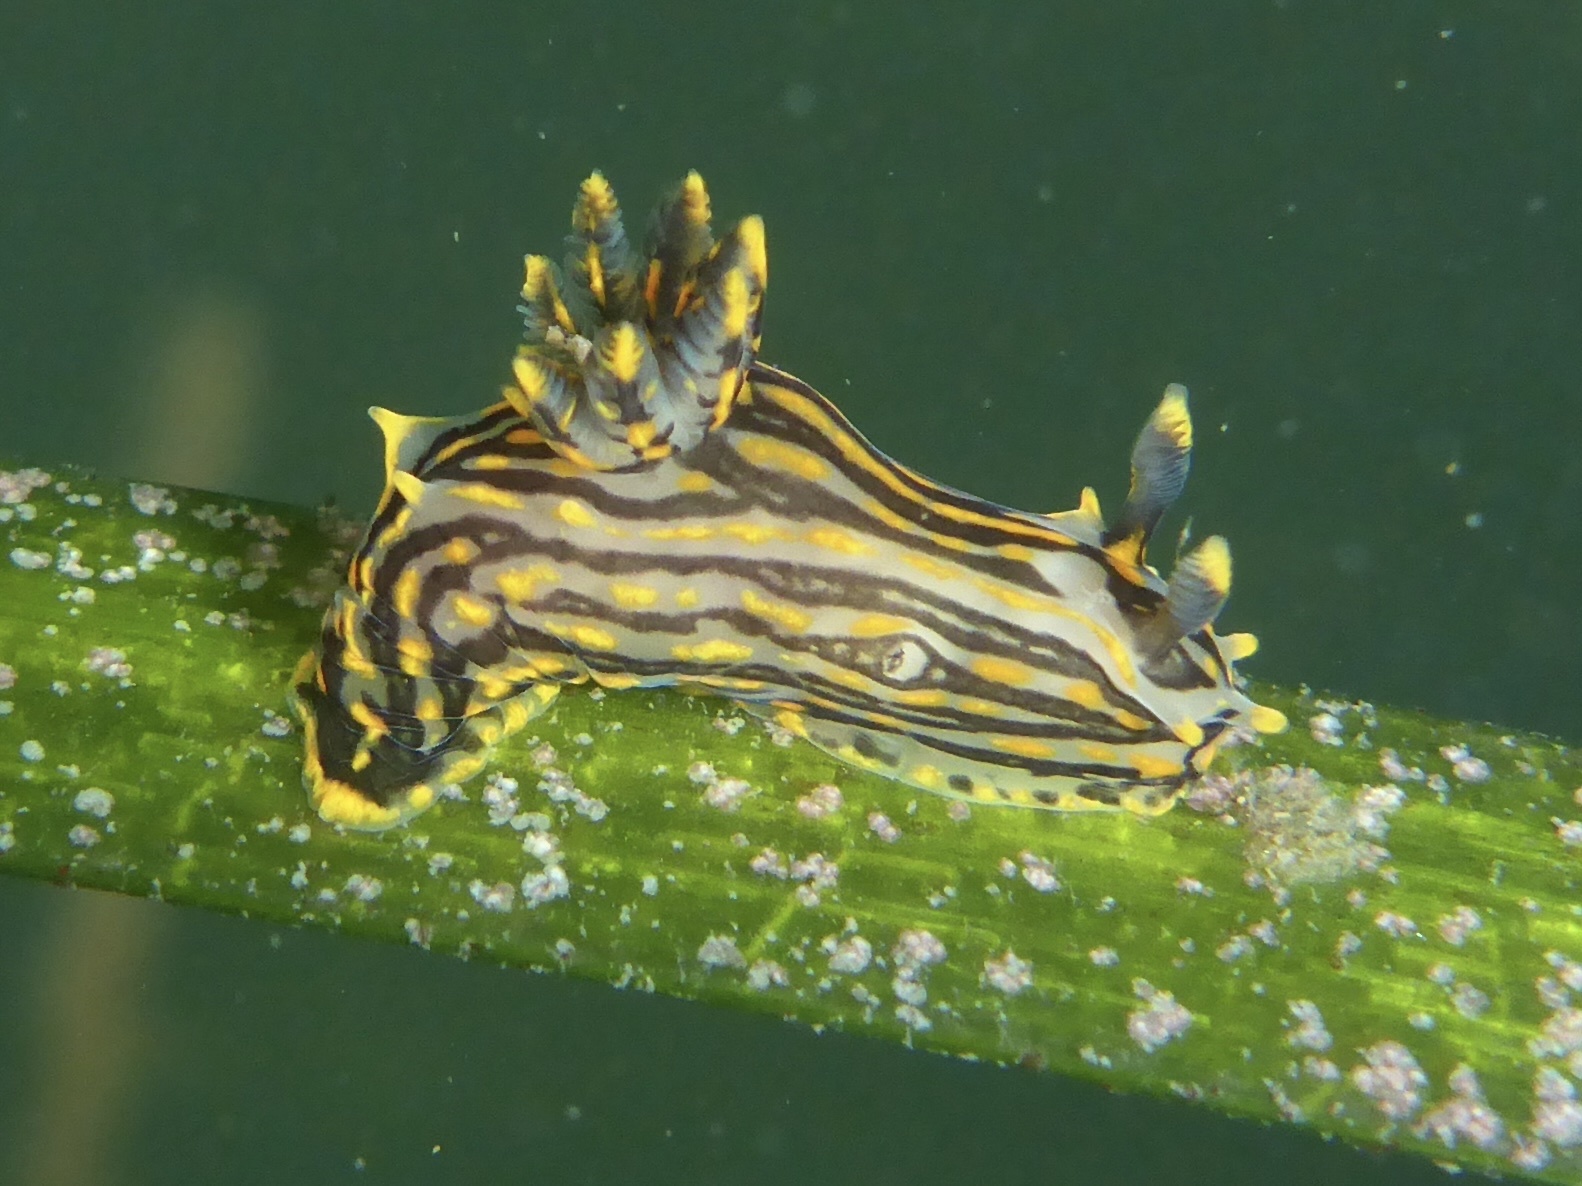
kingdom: Animalia
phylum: Mollusca
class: Gastropoda
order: Nudibranchia
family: Polyceridae
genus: Polycera
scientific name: Polycera atra
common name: Orange-spike polycera
